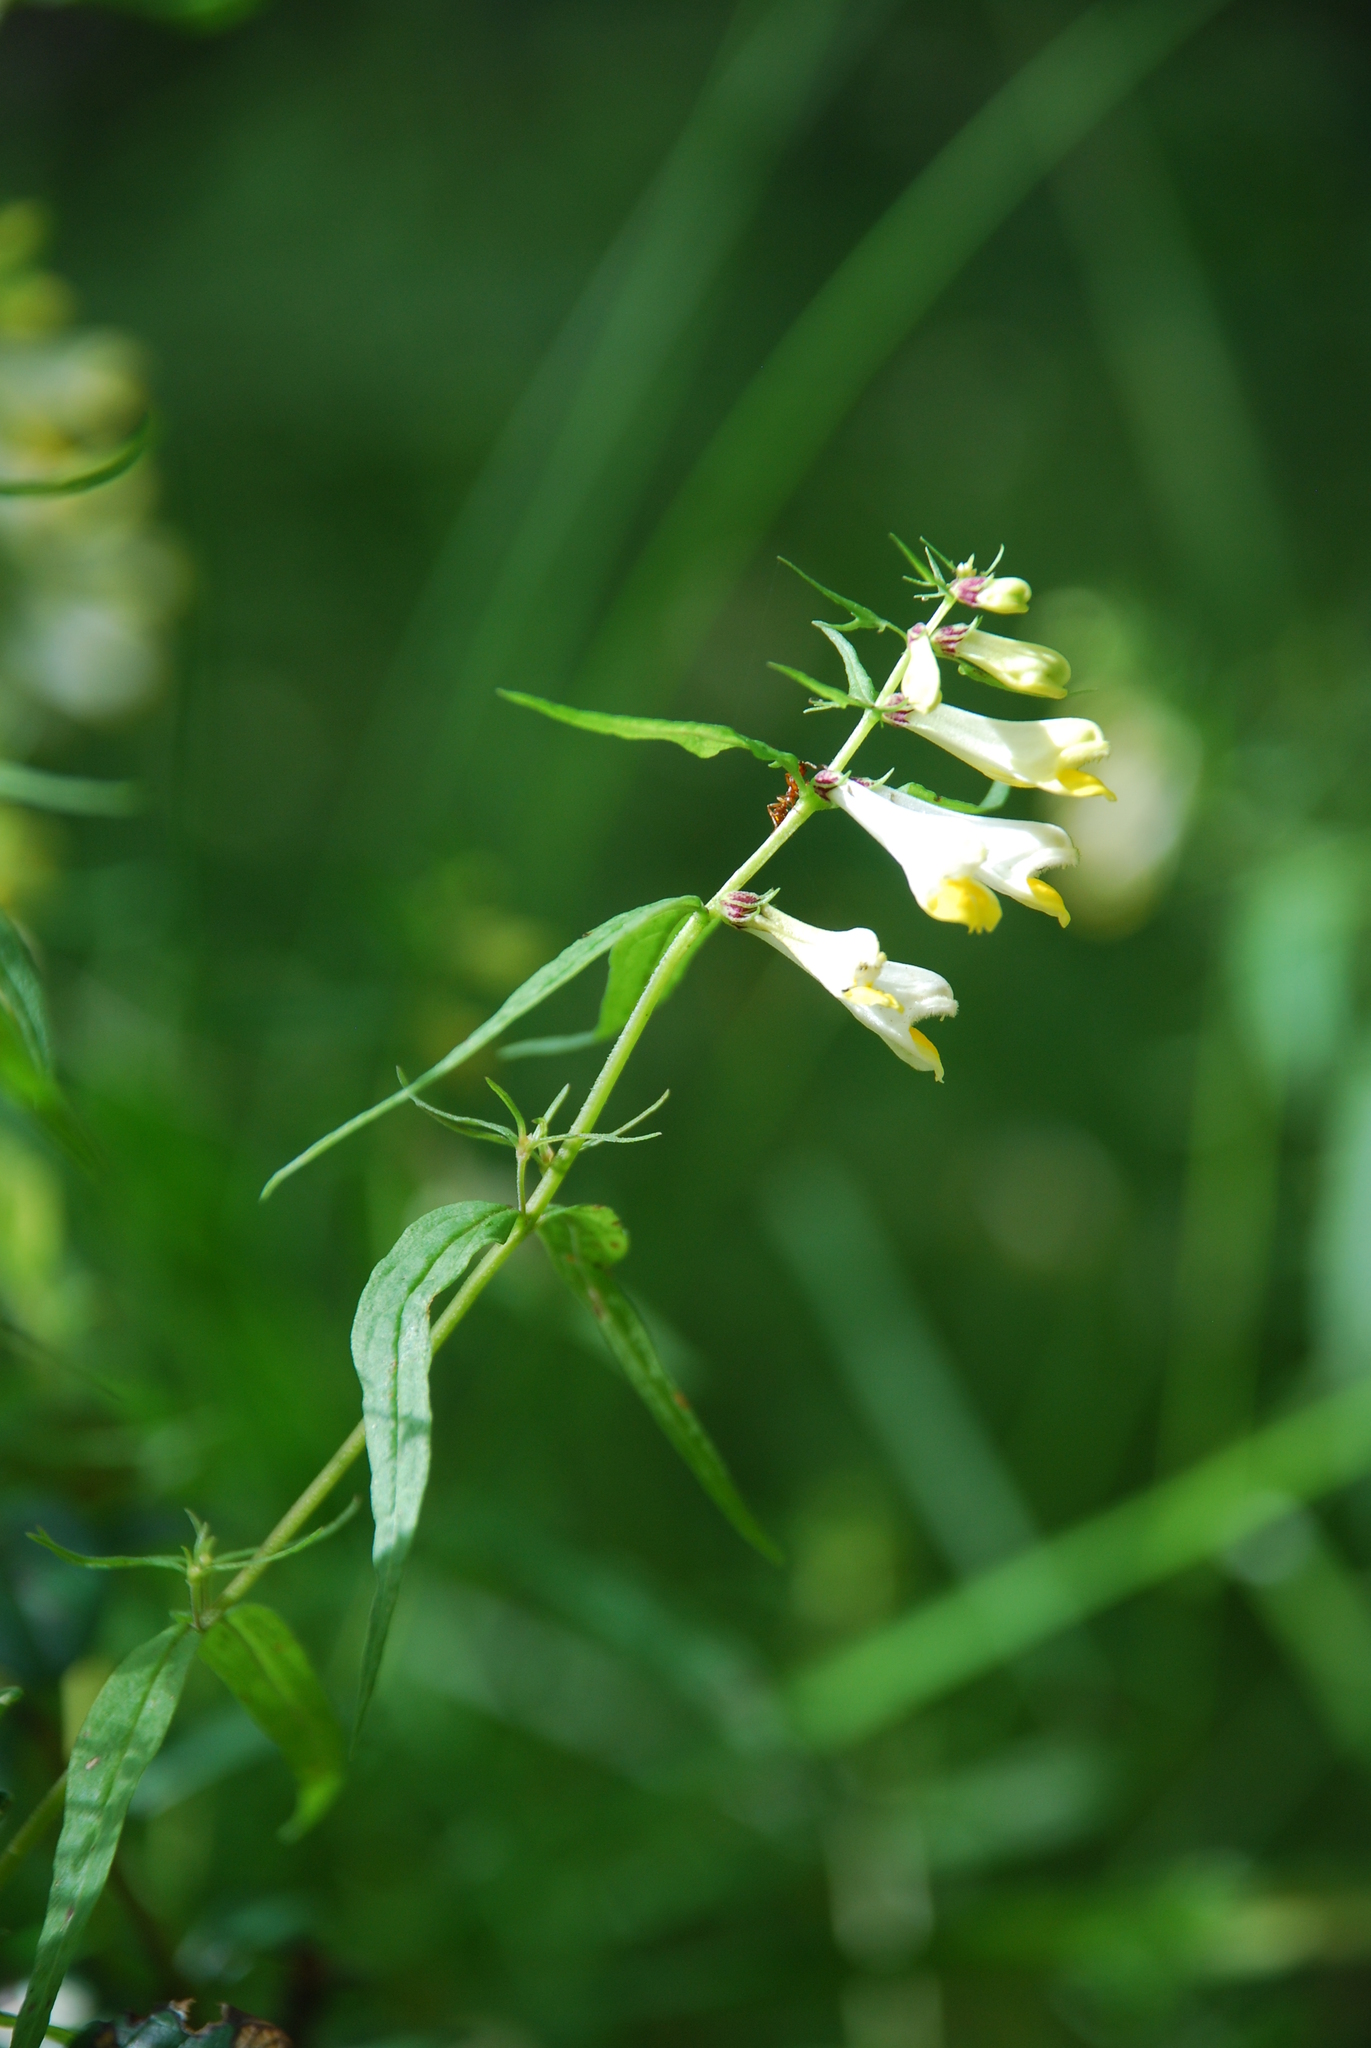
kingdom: Plantae
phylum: Tracheophyta
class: Magnoliopsida
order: Lamiales
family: Orobanchaceae
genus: Melampyrum
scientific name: Melampyrum pratense
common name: Common cow-wheat
